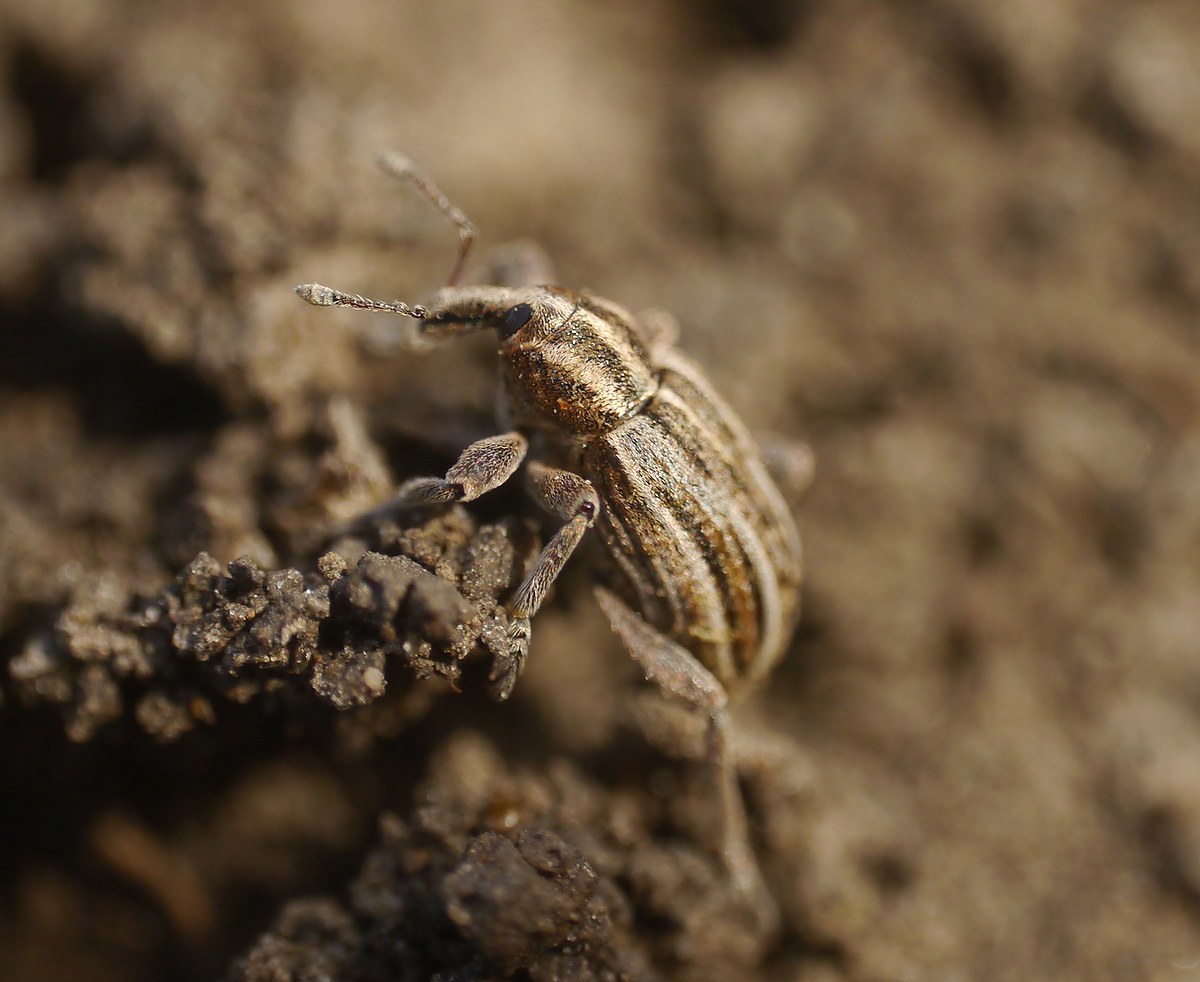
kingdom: Animalia
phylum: Arthropoda
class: Insecta
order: Coleoptera
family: Curculionidae
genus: Hypera
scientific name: Hypera arator
